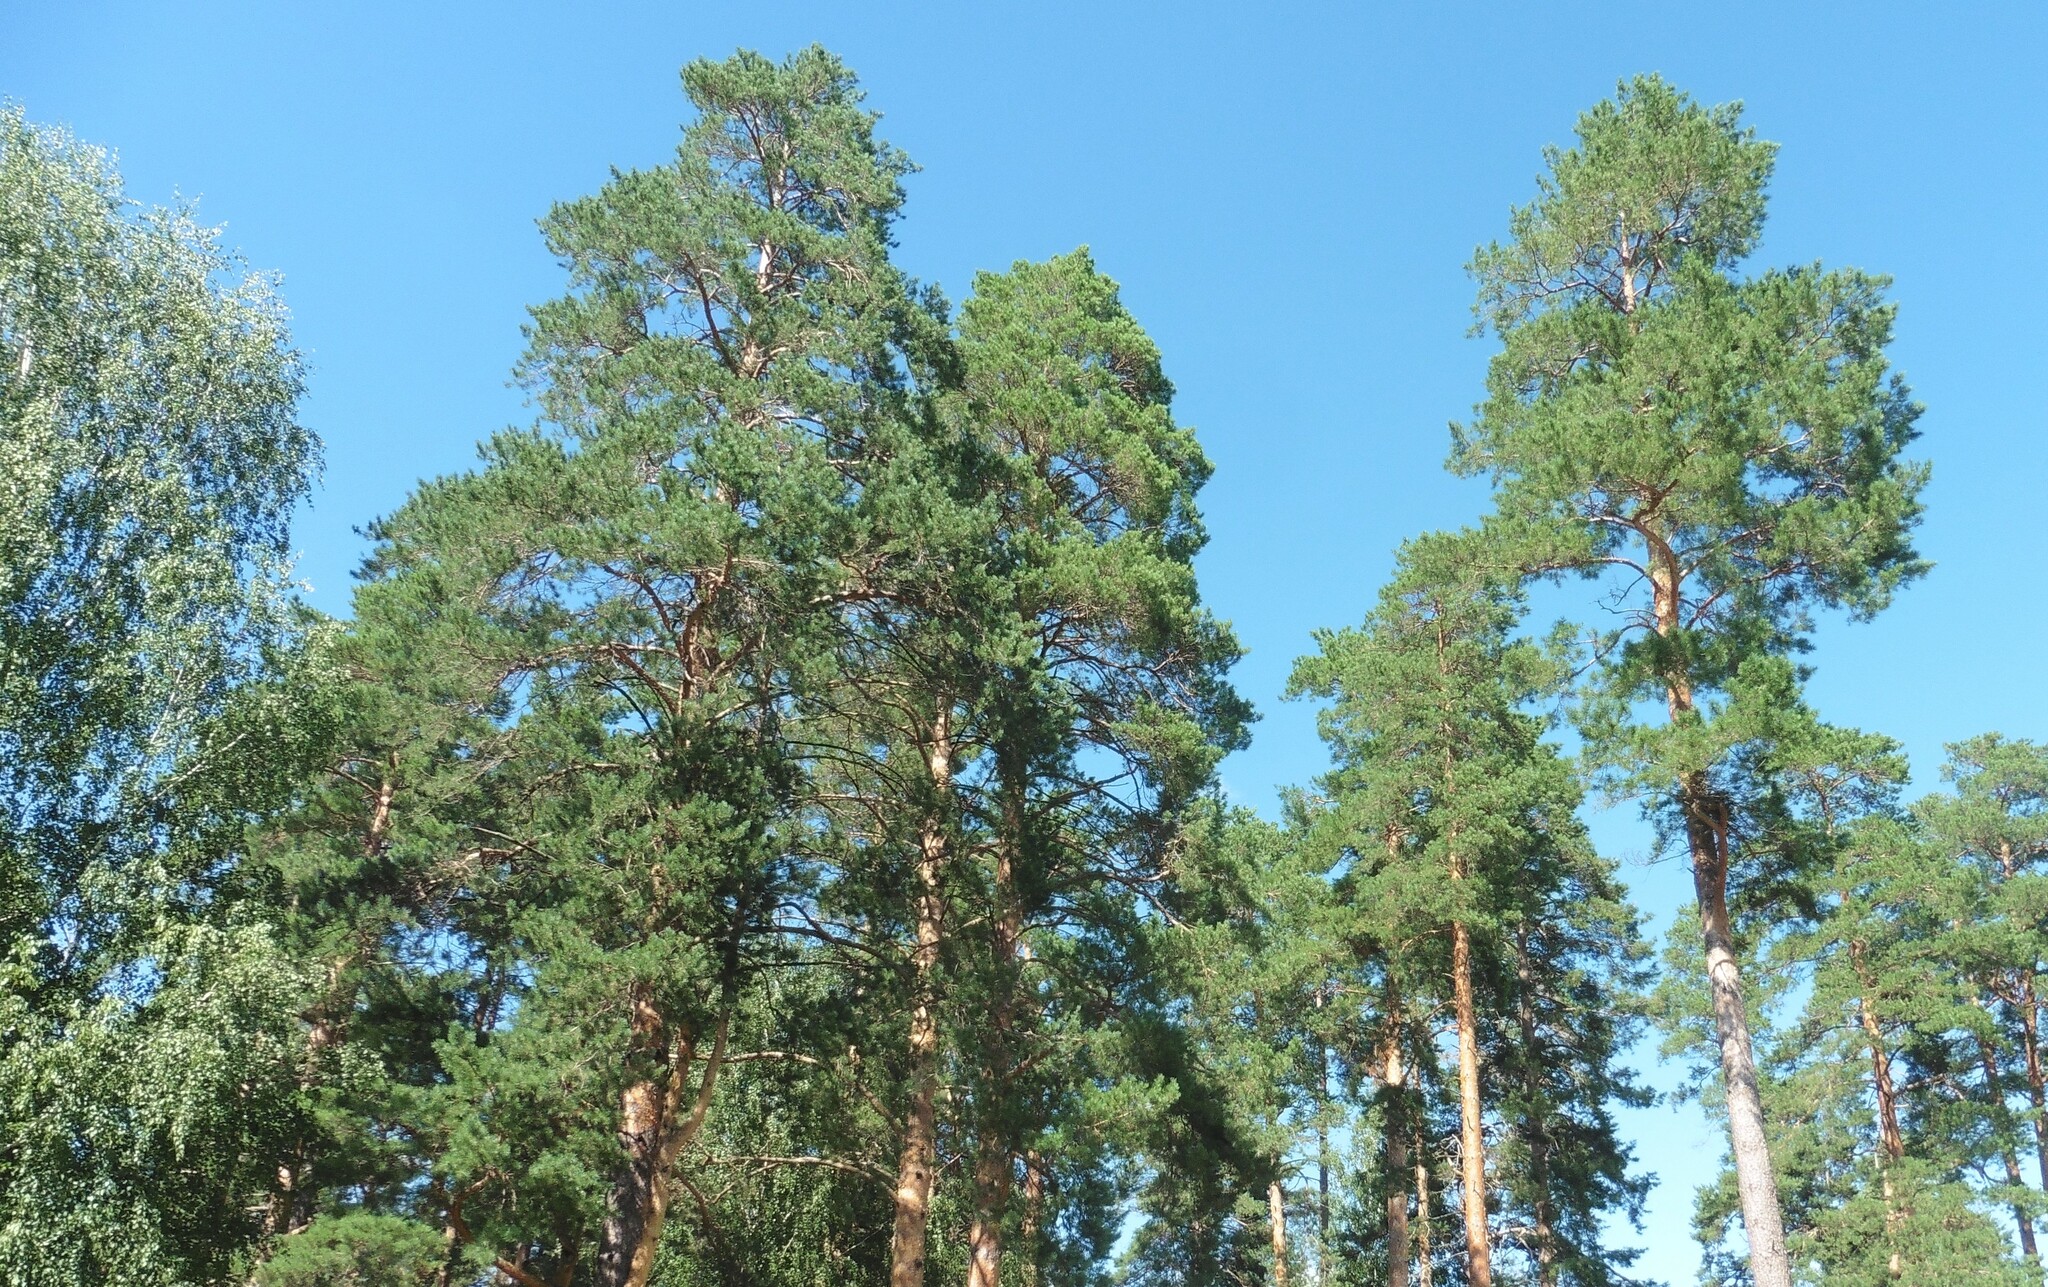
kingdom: Plantae
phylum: Tracheophyta
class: Pinopsida
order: Pinales
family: Pinaceae
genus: Pinus
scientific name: Pinus sylvestris
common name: Scots pine
